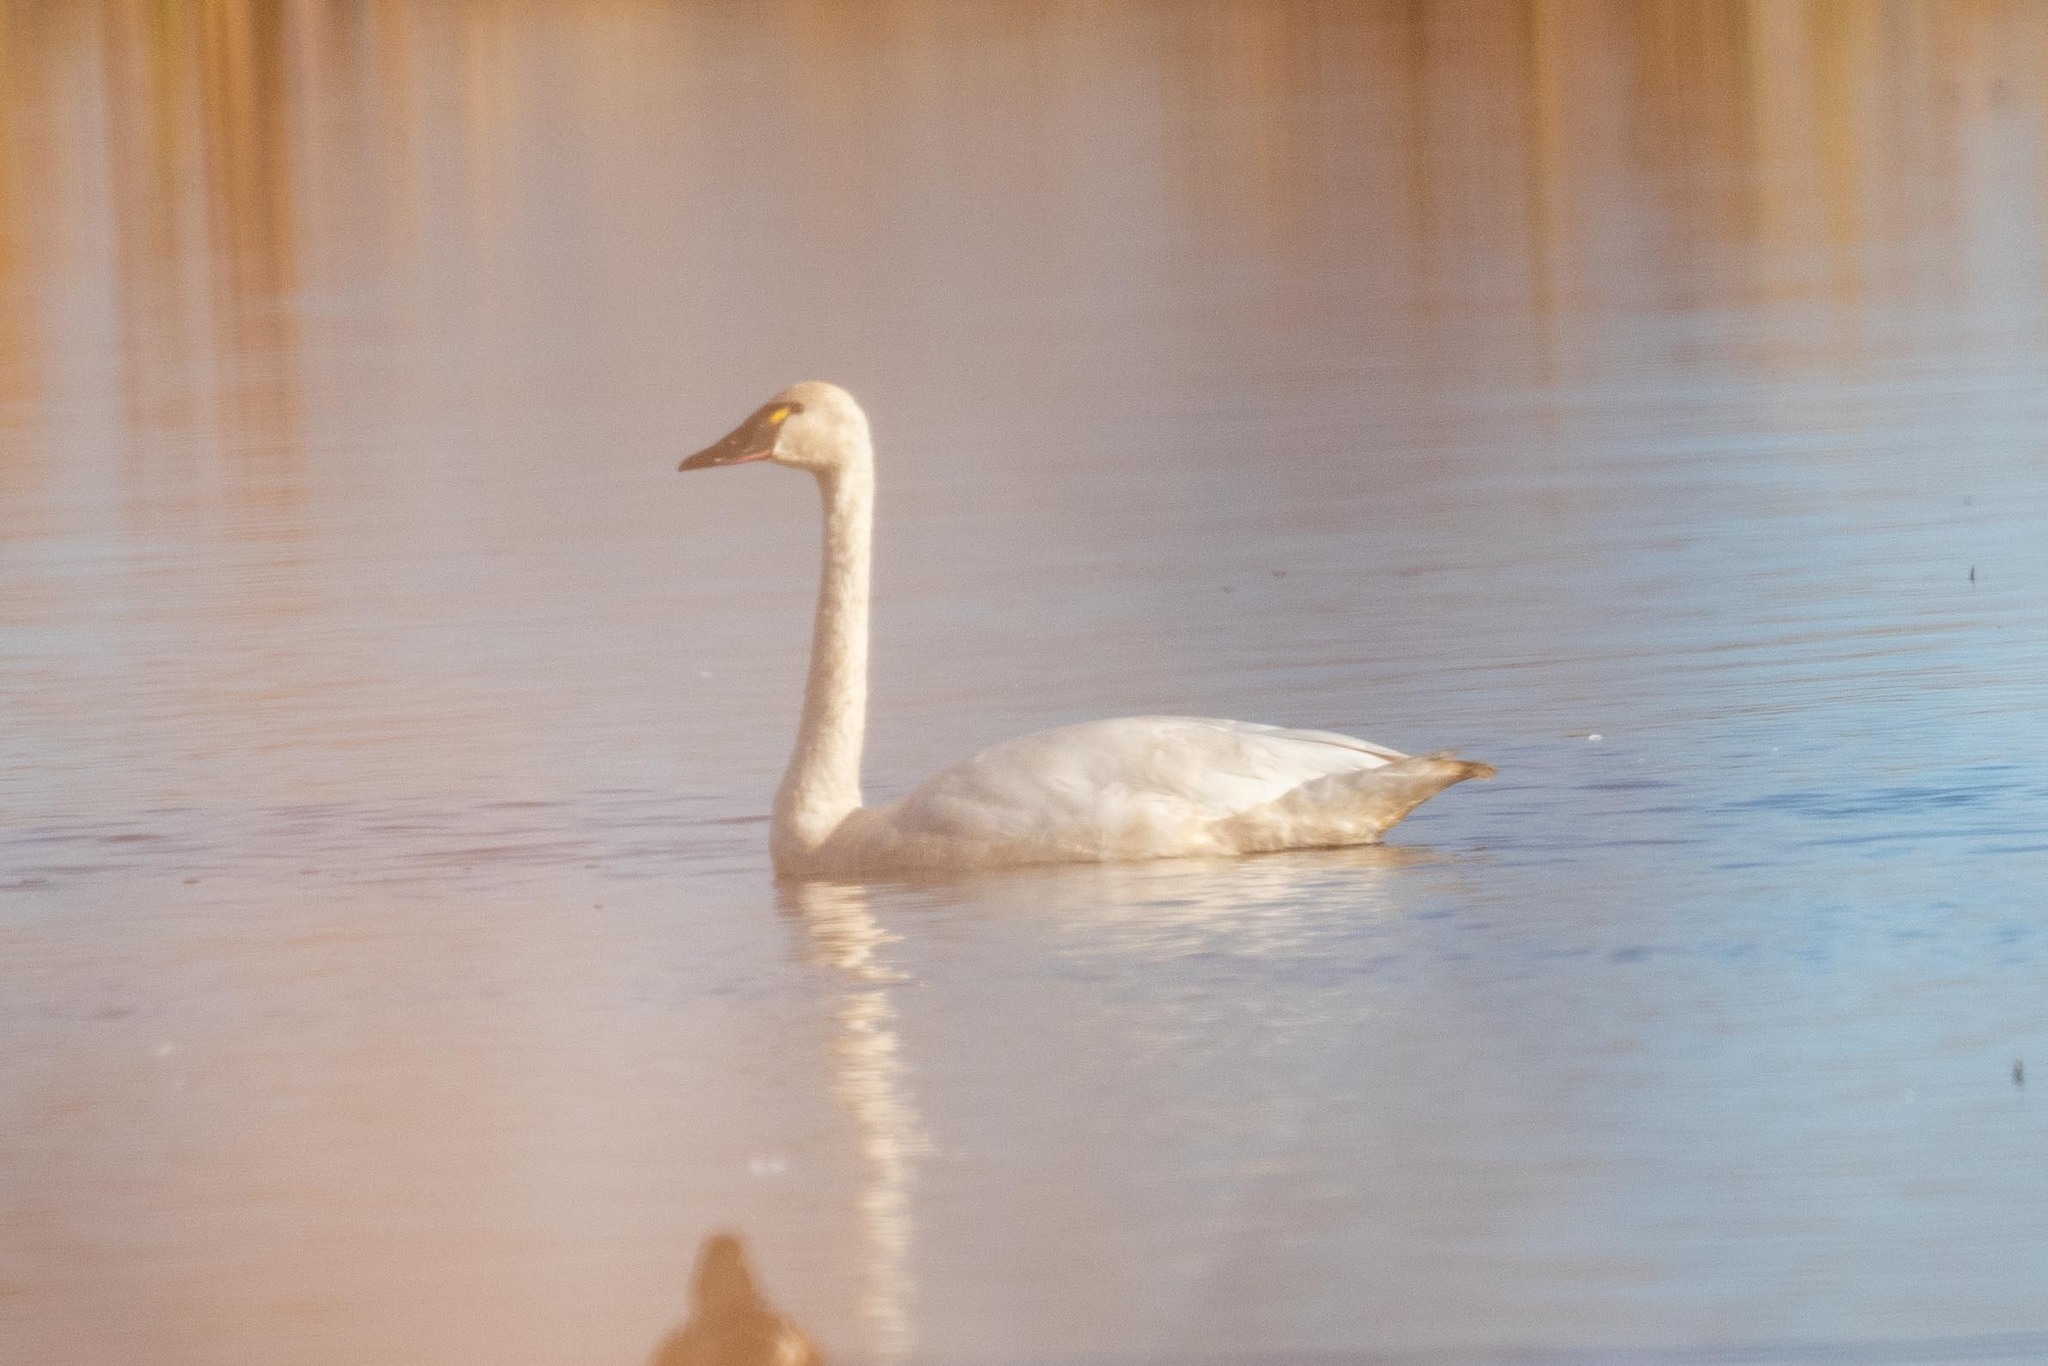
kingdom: Animalia
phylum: Chordata
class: Aves
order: Anseriformes
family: Anatidae
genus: Cygnus
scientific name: Cygnus columbianus
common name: Tundra swan
